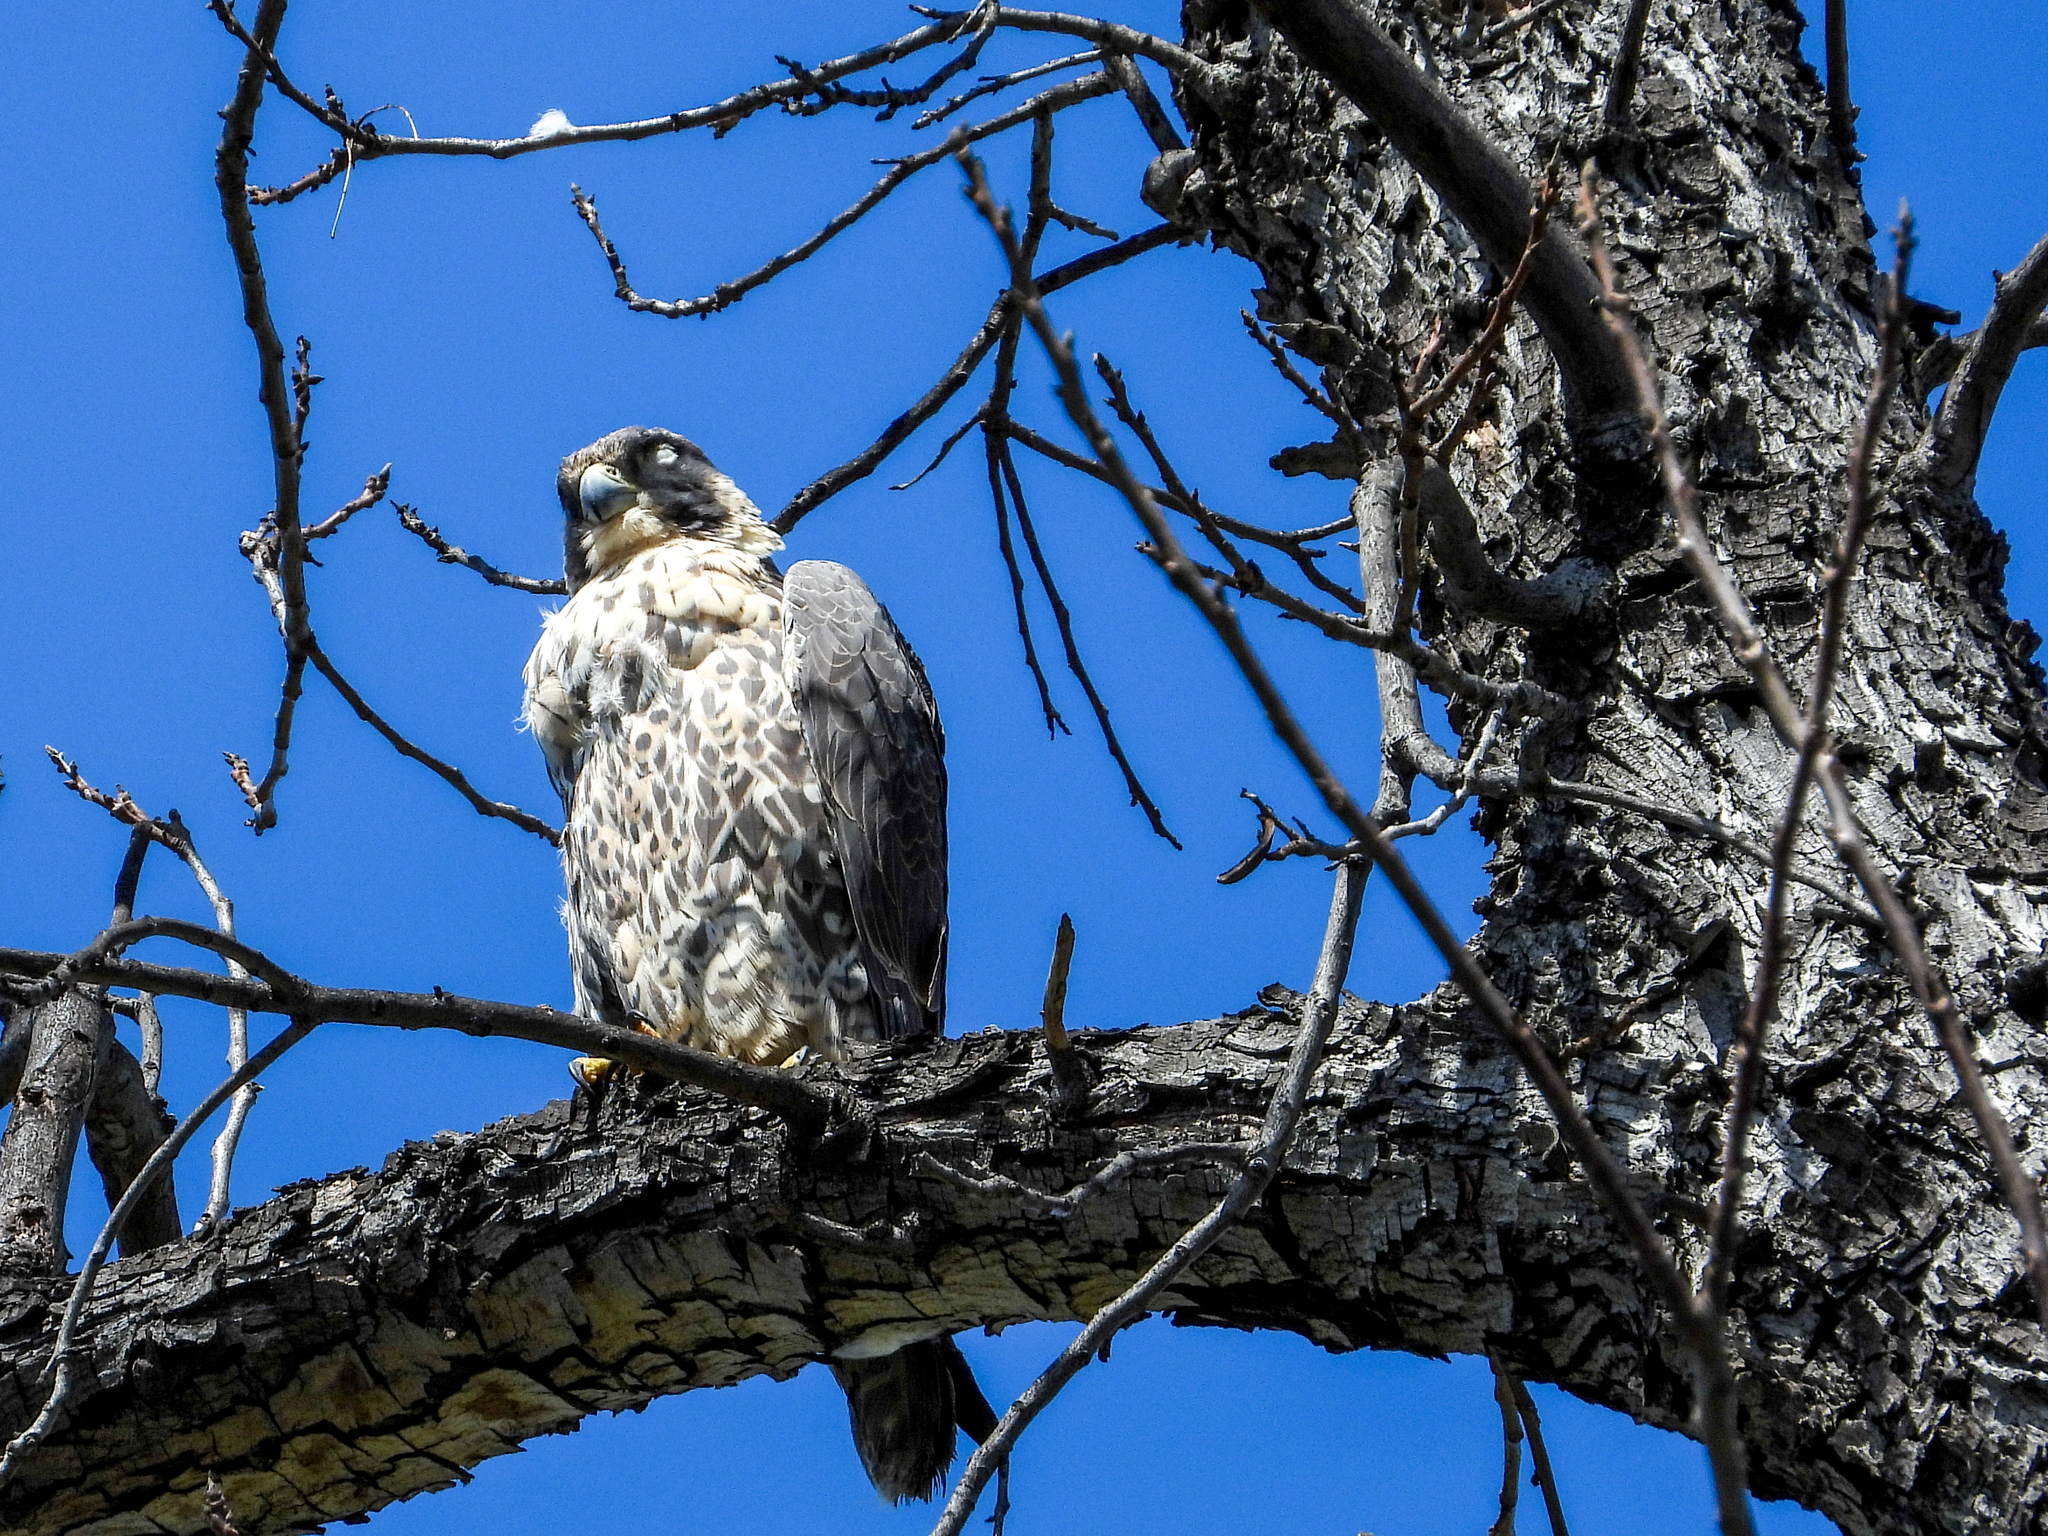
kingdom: Animalia
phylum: Chordata
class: Aves
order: Falconiformes
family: Falconidae
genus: Falco
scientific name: Falco peregrinus
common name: Peregrine falcon
